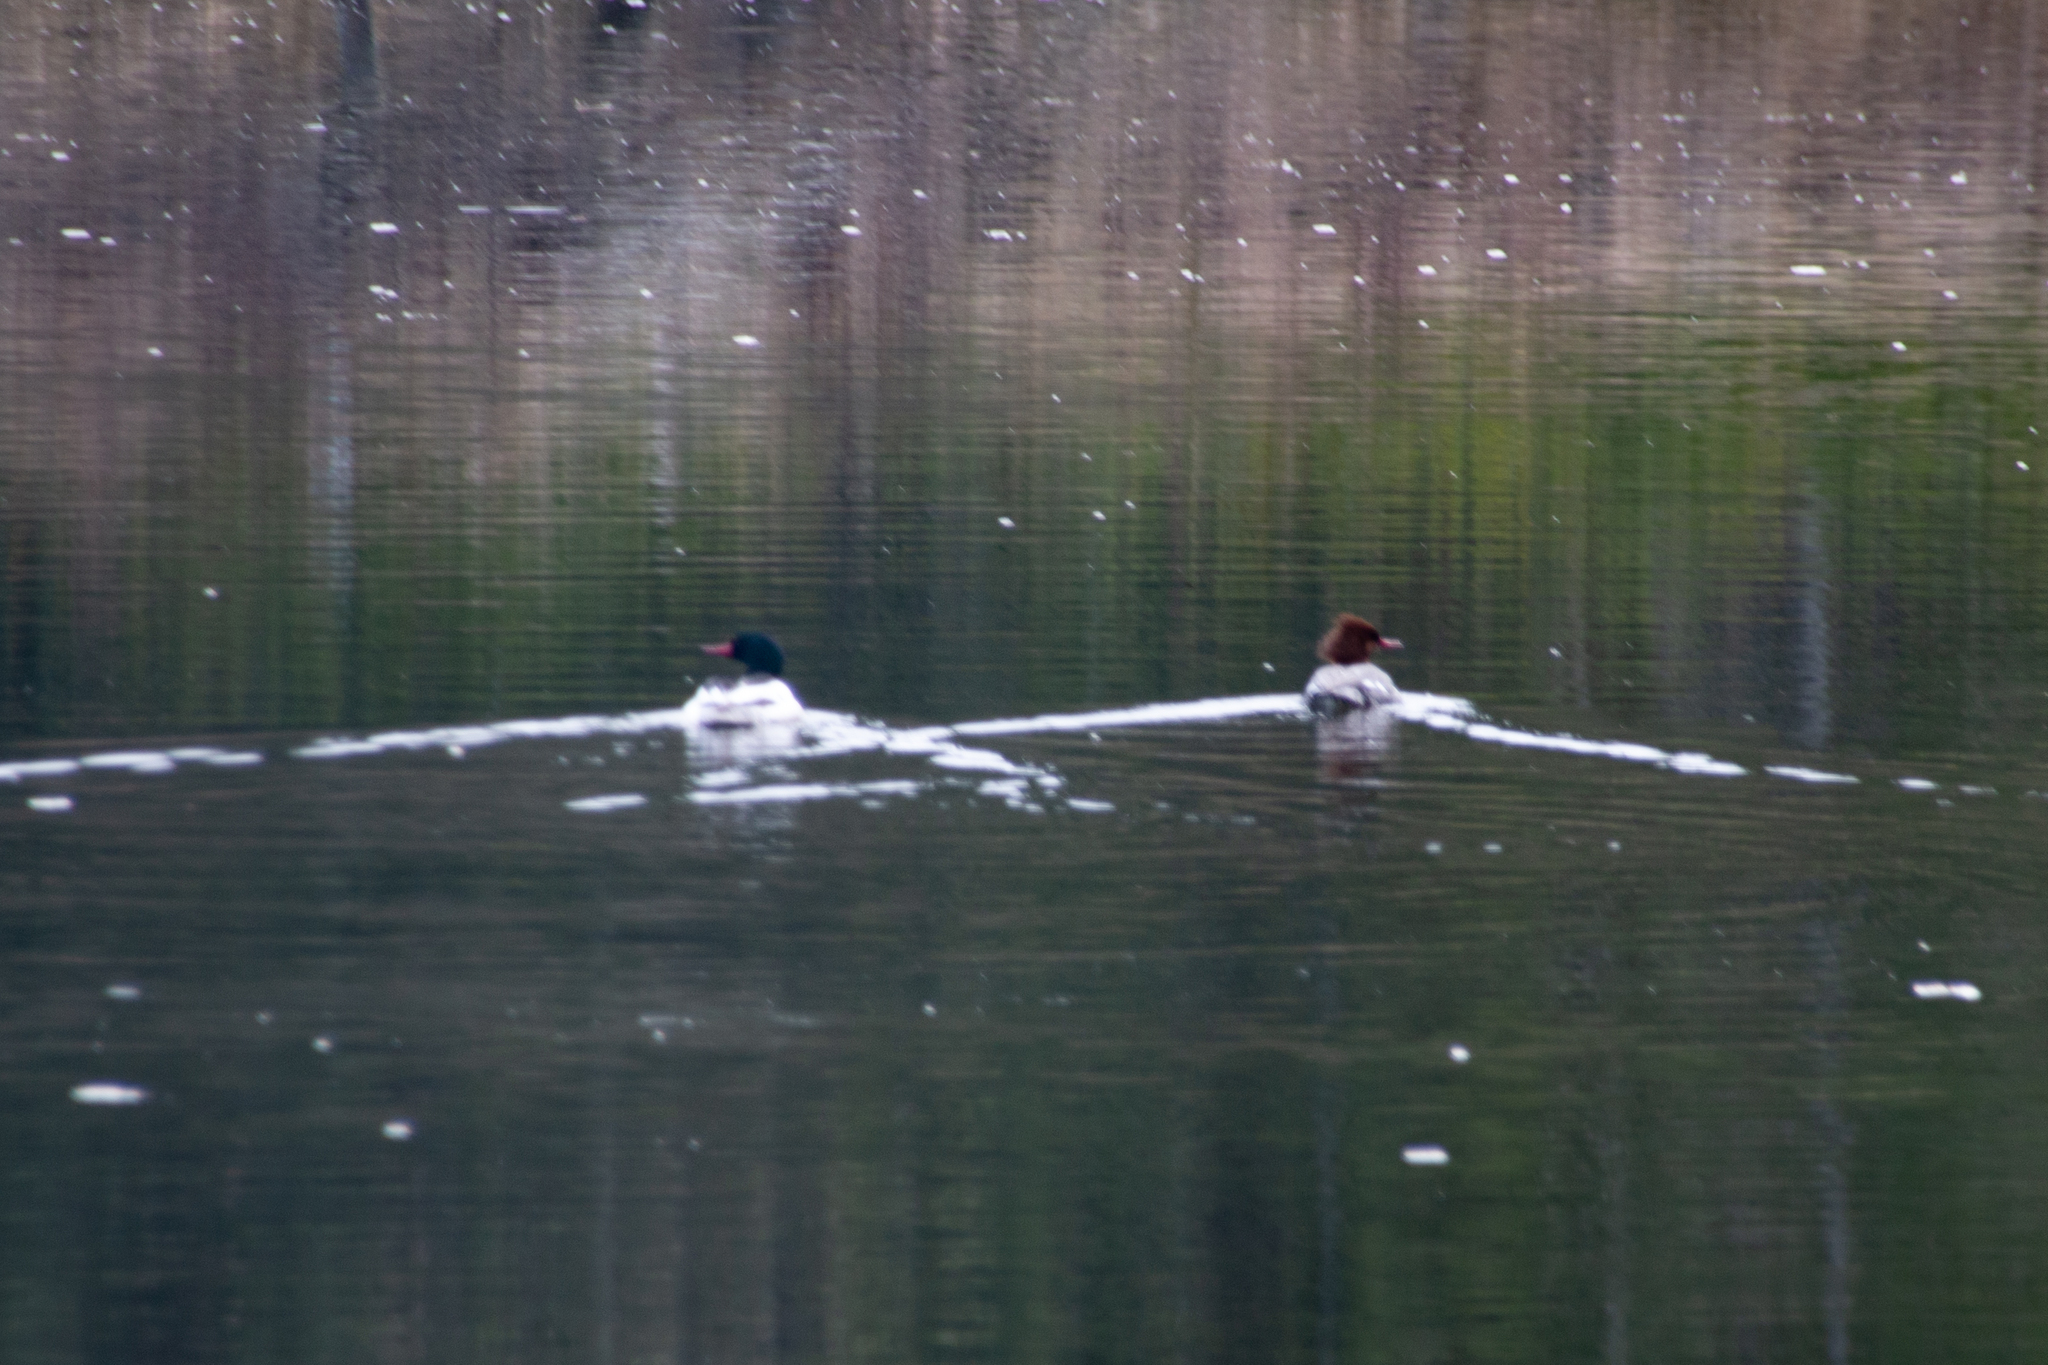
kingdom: Animalia
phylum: Chordata
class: Aves
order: Anseriformes
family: Anatidae
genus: Mergus
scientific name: Mergus merganser
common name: Common merganser
